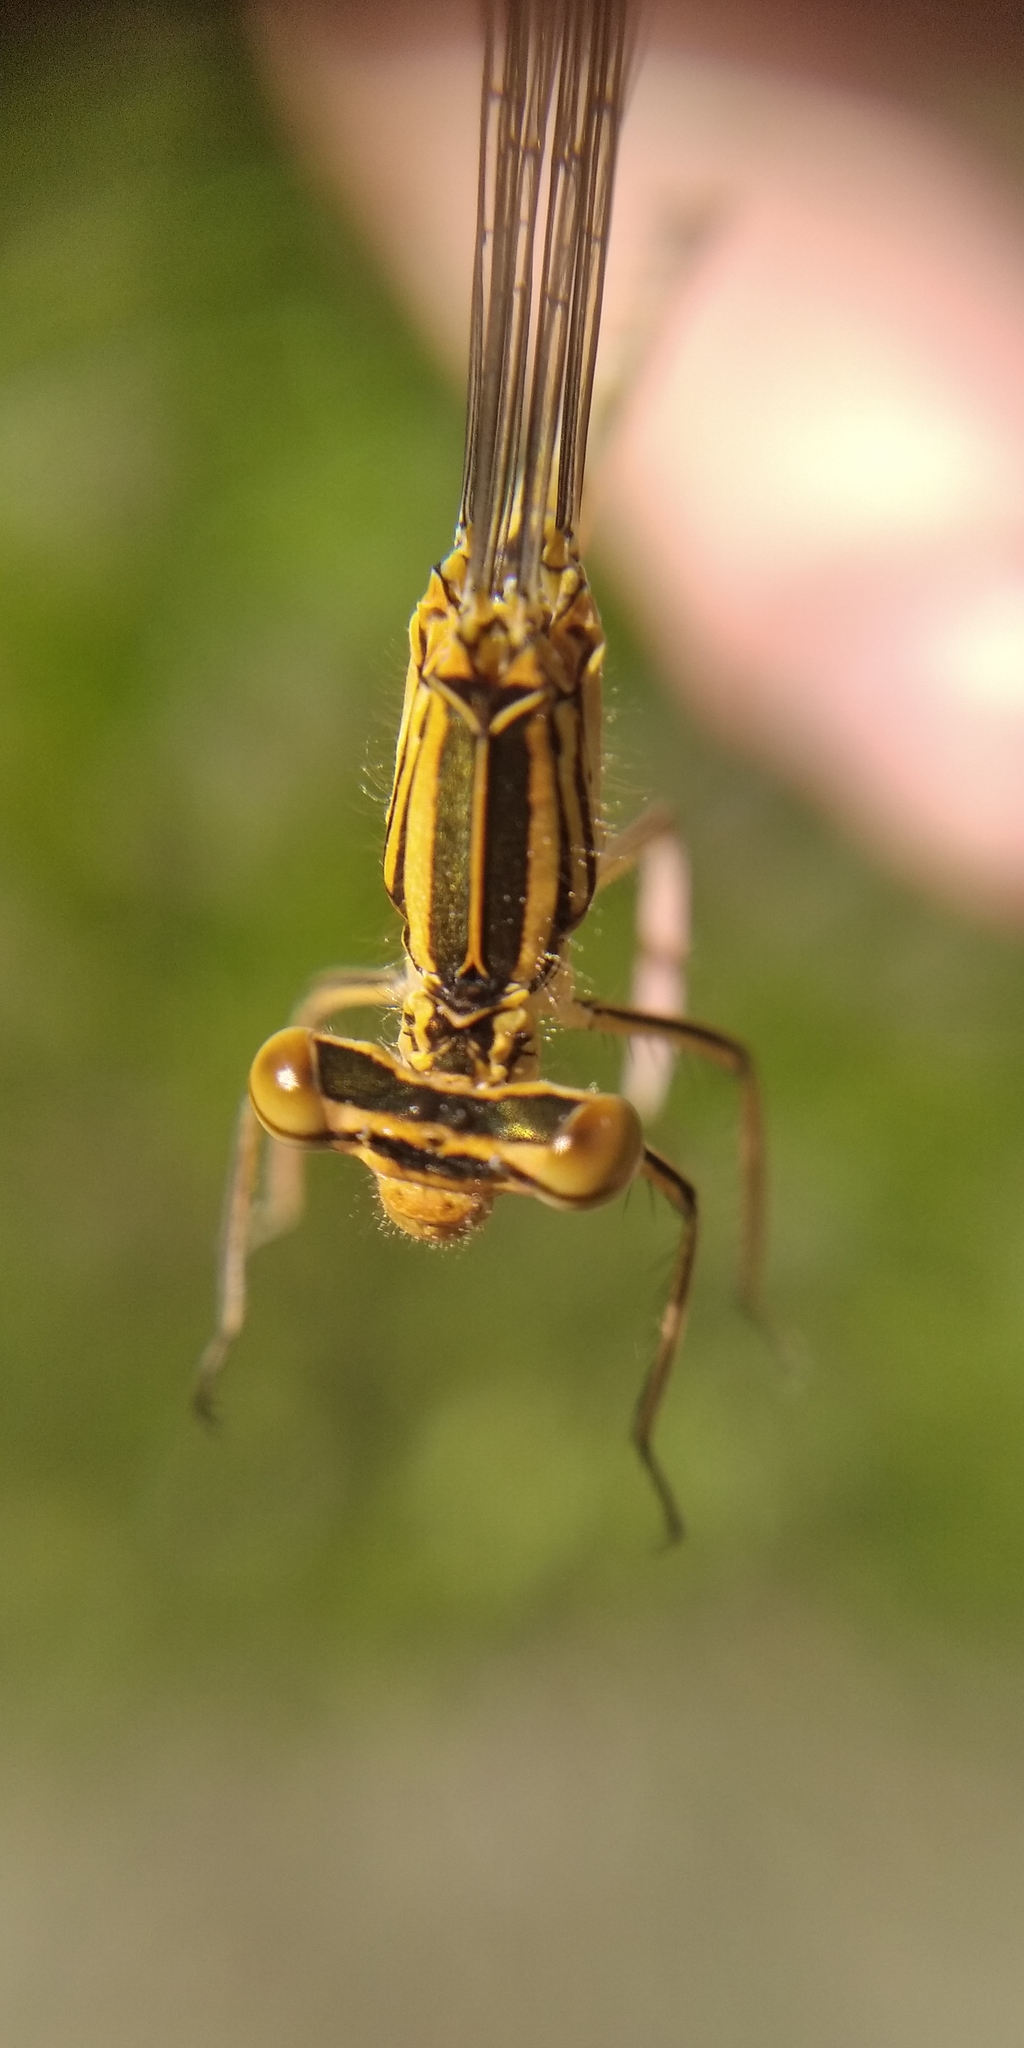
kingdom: Animalia
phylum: Arthropoda
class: Insecta
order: Odonata
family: Platycnemididae
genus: Platycnemis
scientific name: Platycnemis pennipes
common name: White-legged damselfly
